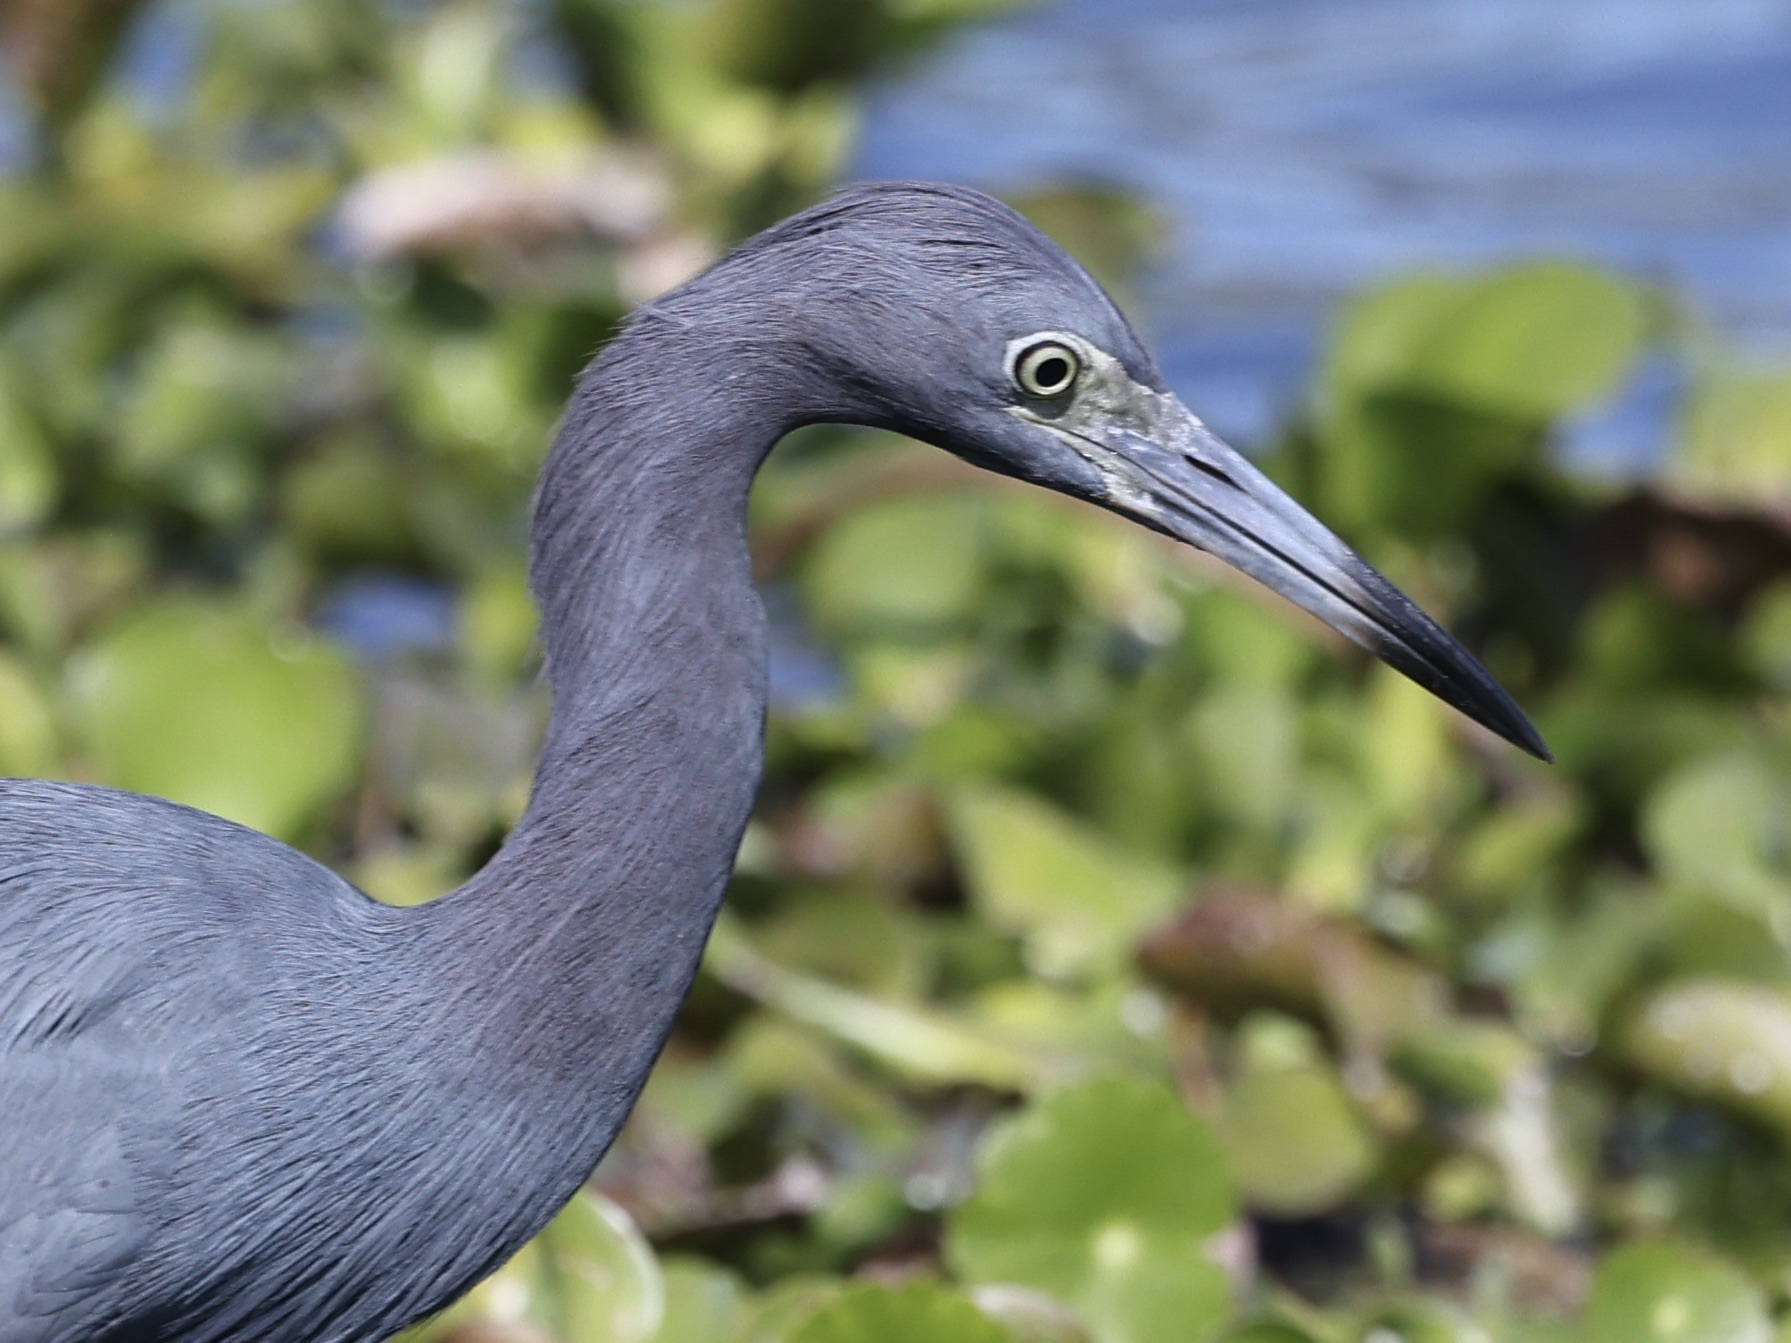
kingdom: Animalia
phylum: Chordata
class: Aves
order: Pelecaniformes
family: Ardeidae
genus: Egretta
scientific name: Egretta caerulea
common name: Little blue heron
